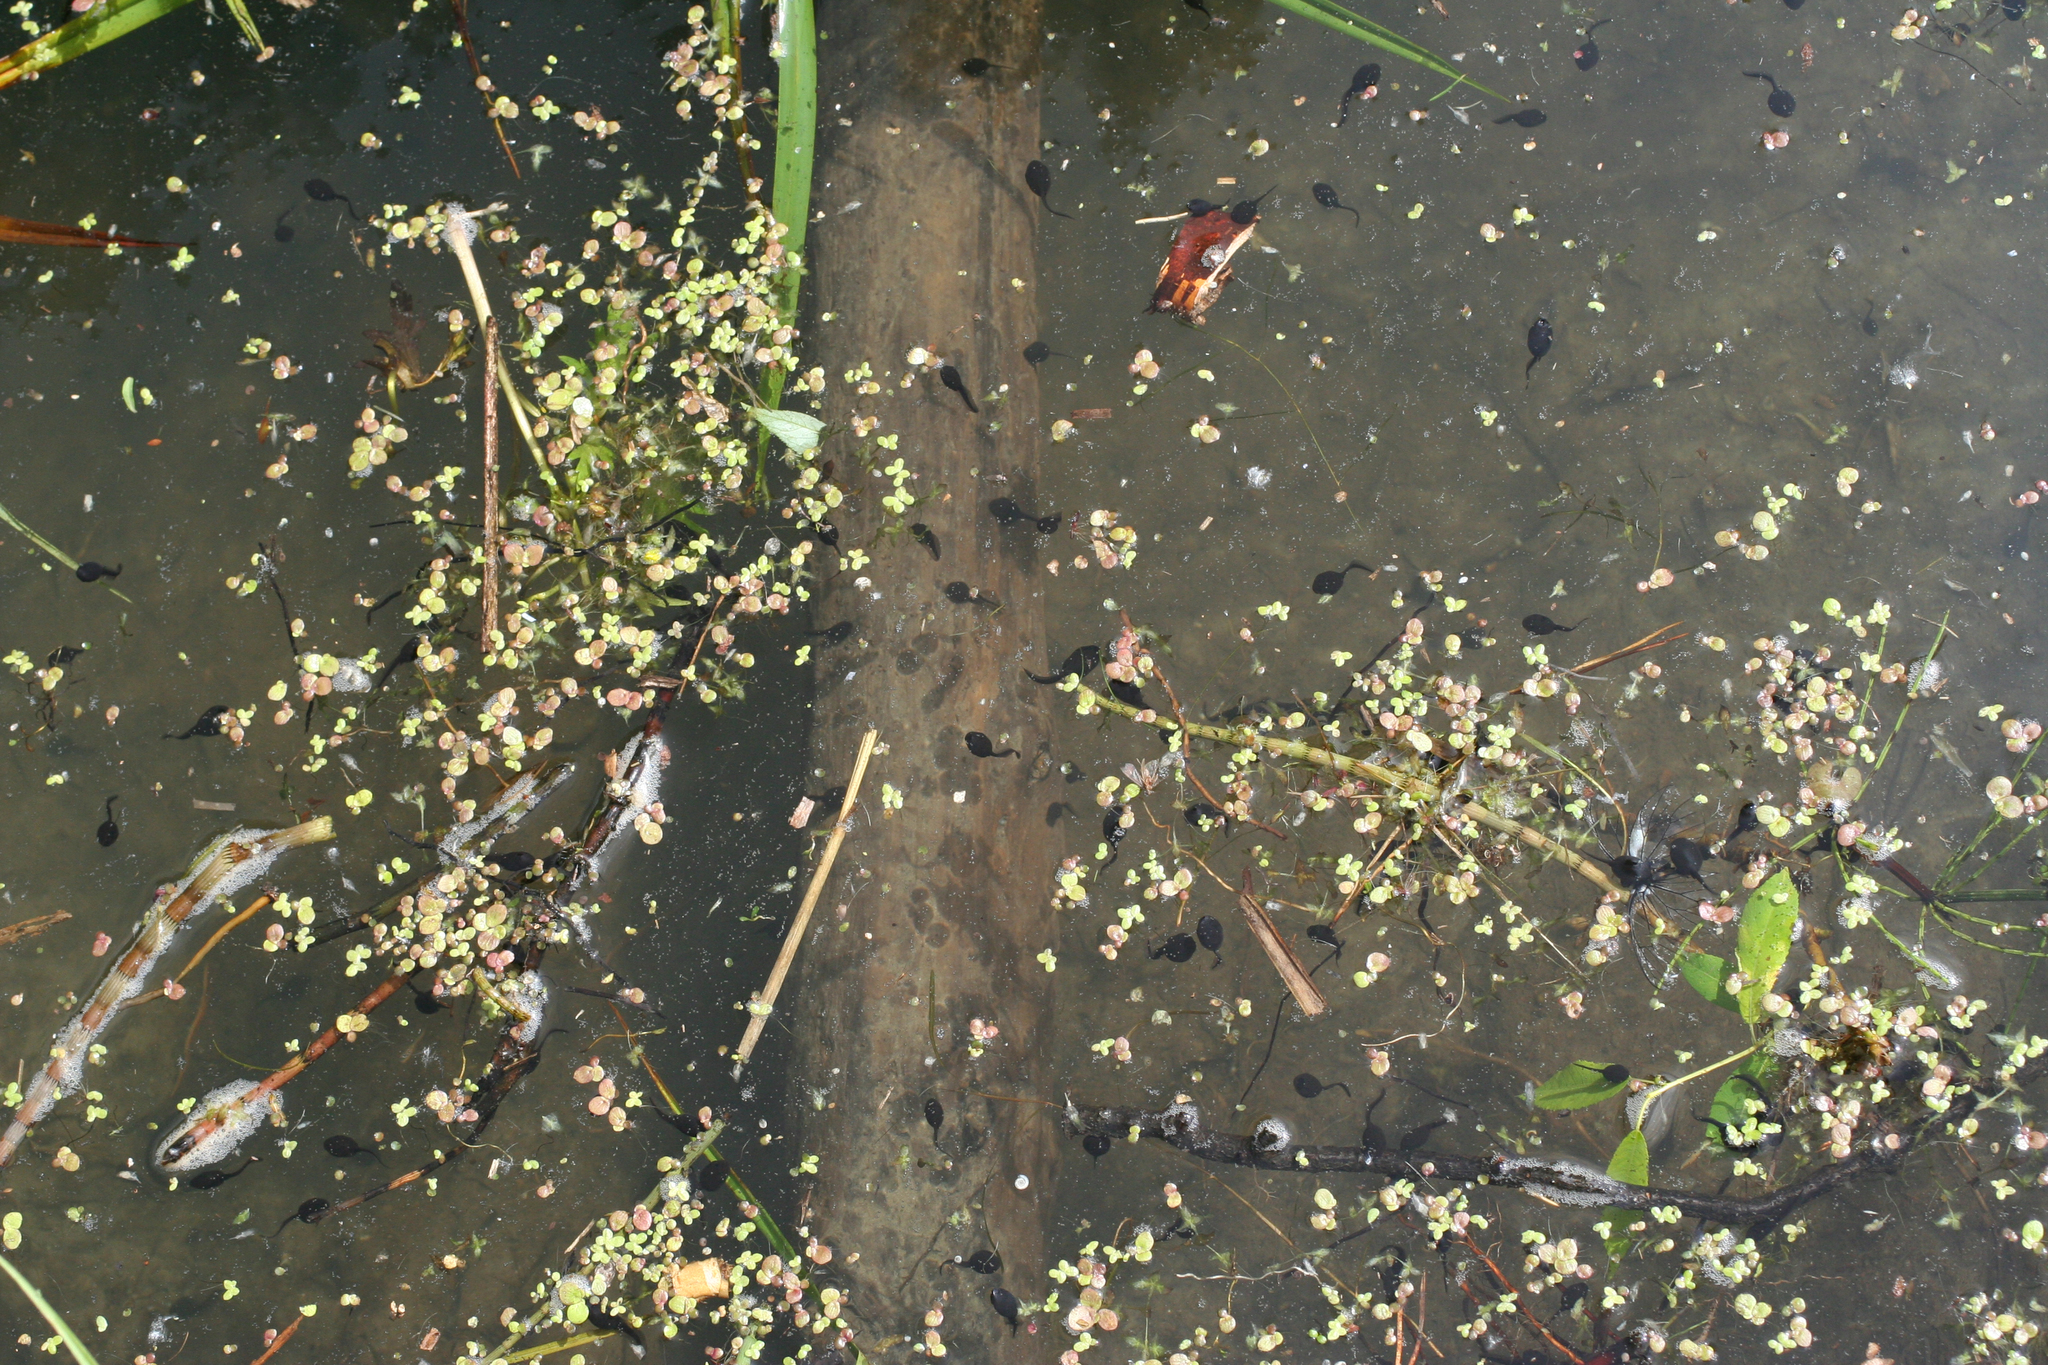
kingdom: Animalia
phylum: Chordata
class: Amphibia
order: Anura
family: Bufonidae
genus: Bufo
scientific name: Bufo bufo
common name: Common toad
